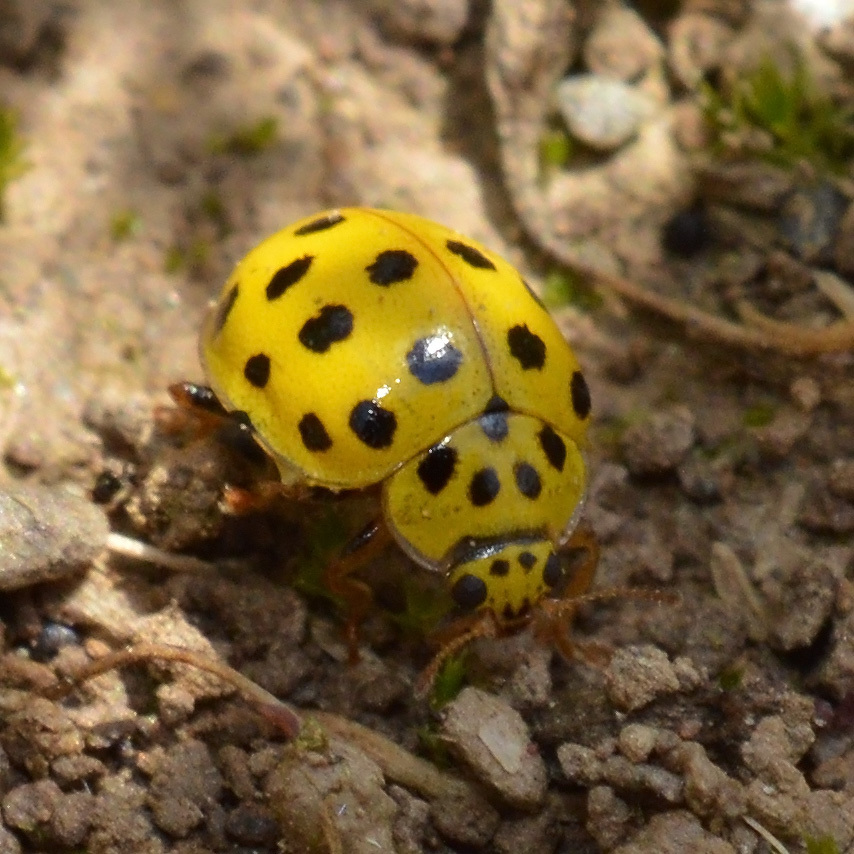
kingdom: Animalia
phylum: Arthropoda
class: Insecta
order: Coleoptera
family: Coccinellidae
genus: Psyllobora
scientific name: Psyllobora vigintiduopunctata
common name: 22-spot ladybird
